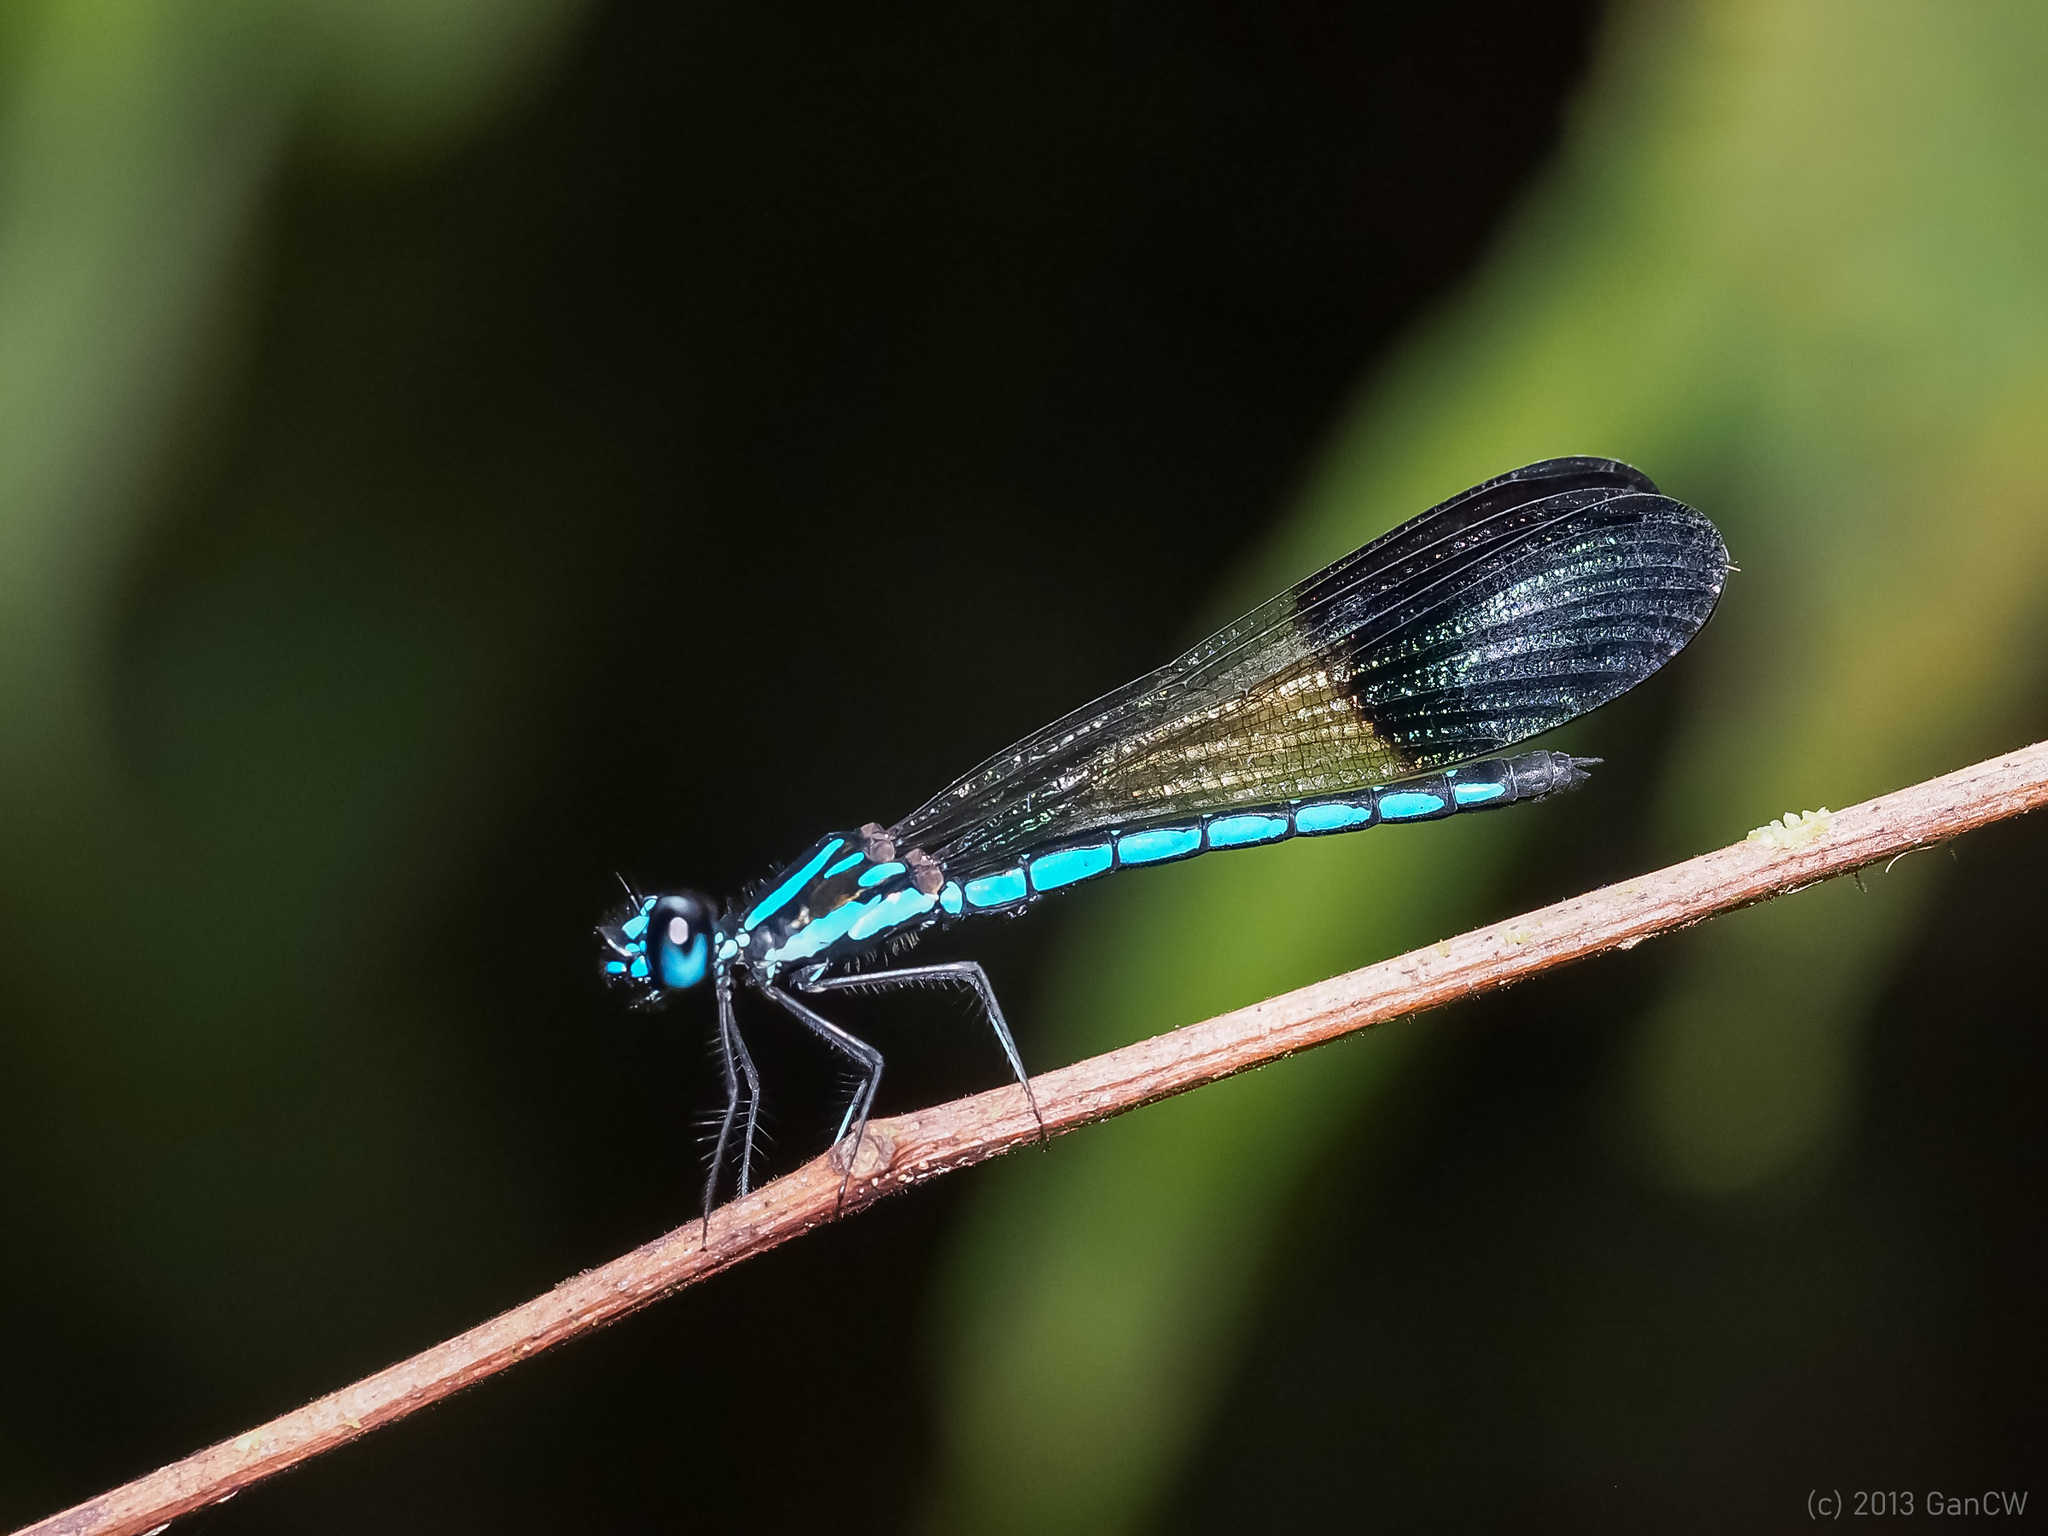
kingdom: Animalia
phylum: Arthropoda
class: Insecta
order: Odonata
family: Chlorocyphidae
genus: Rhinocypha
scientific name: Rhinocypha humeralis
